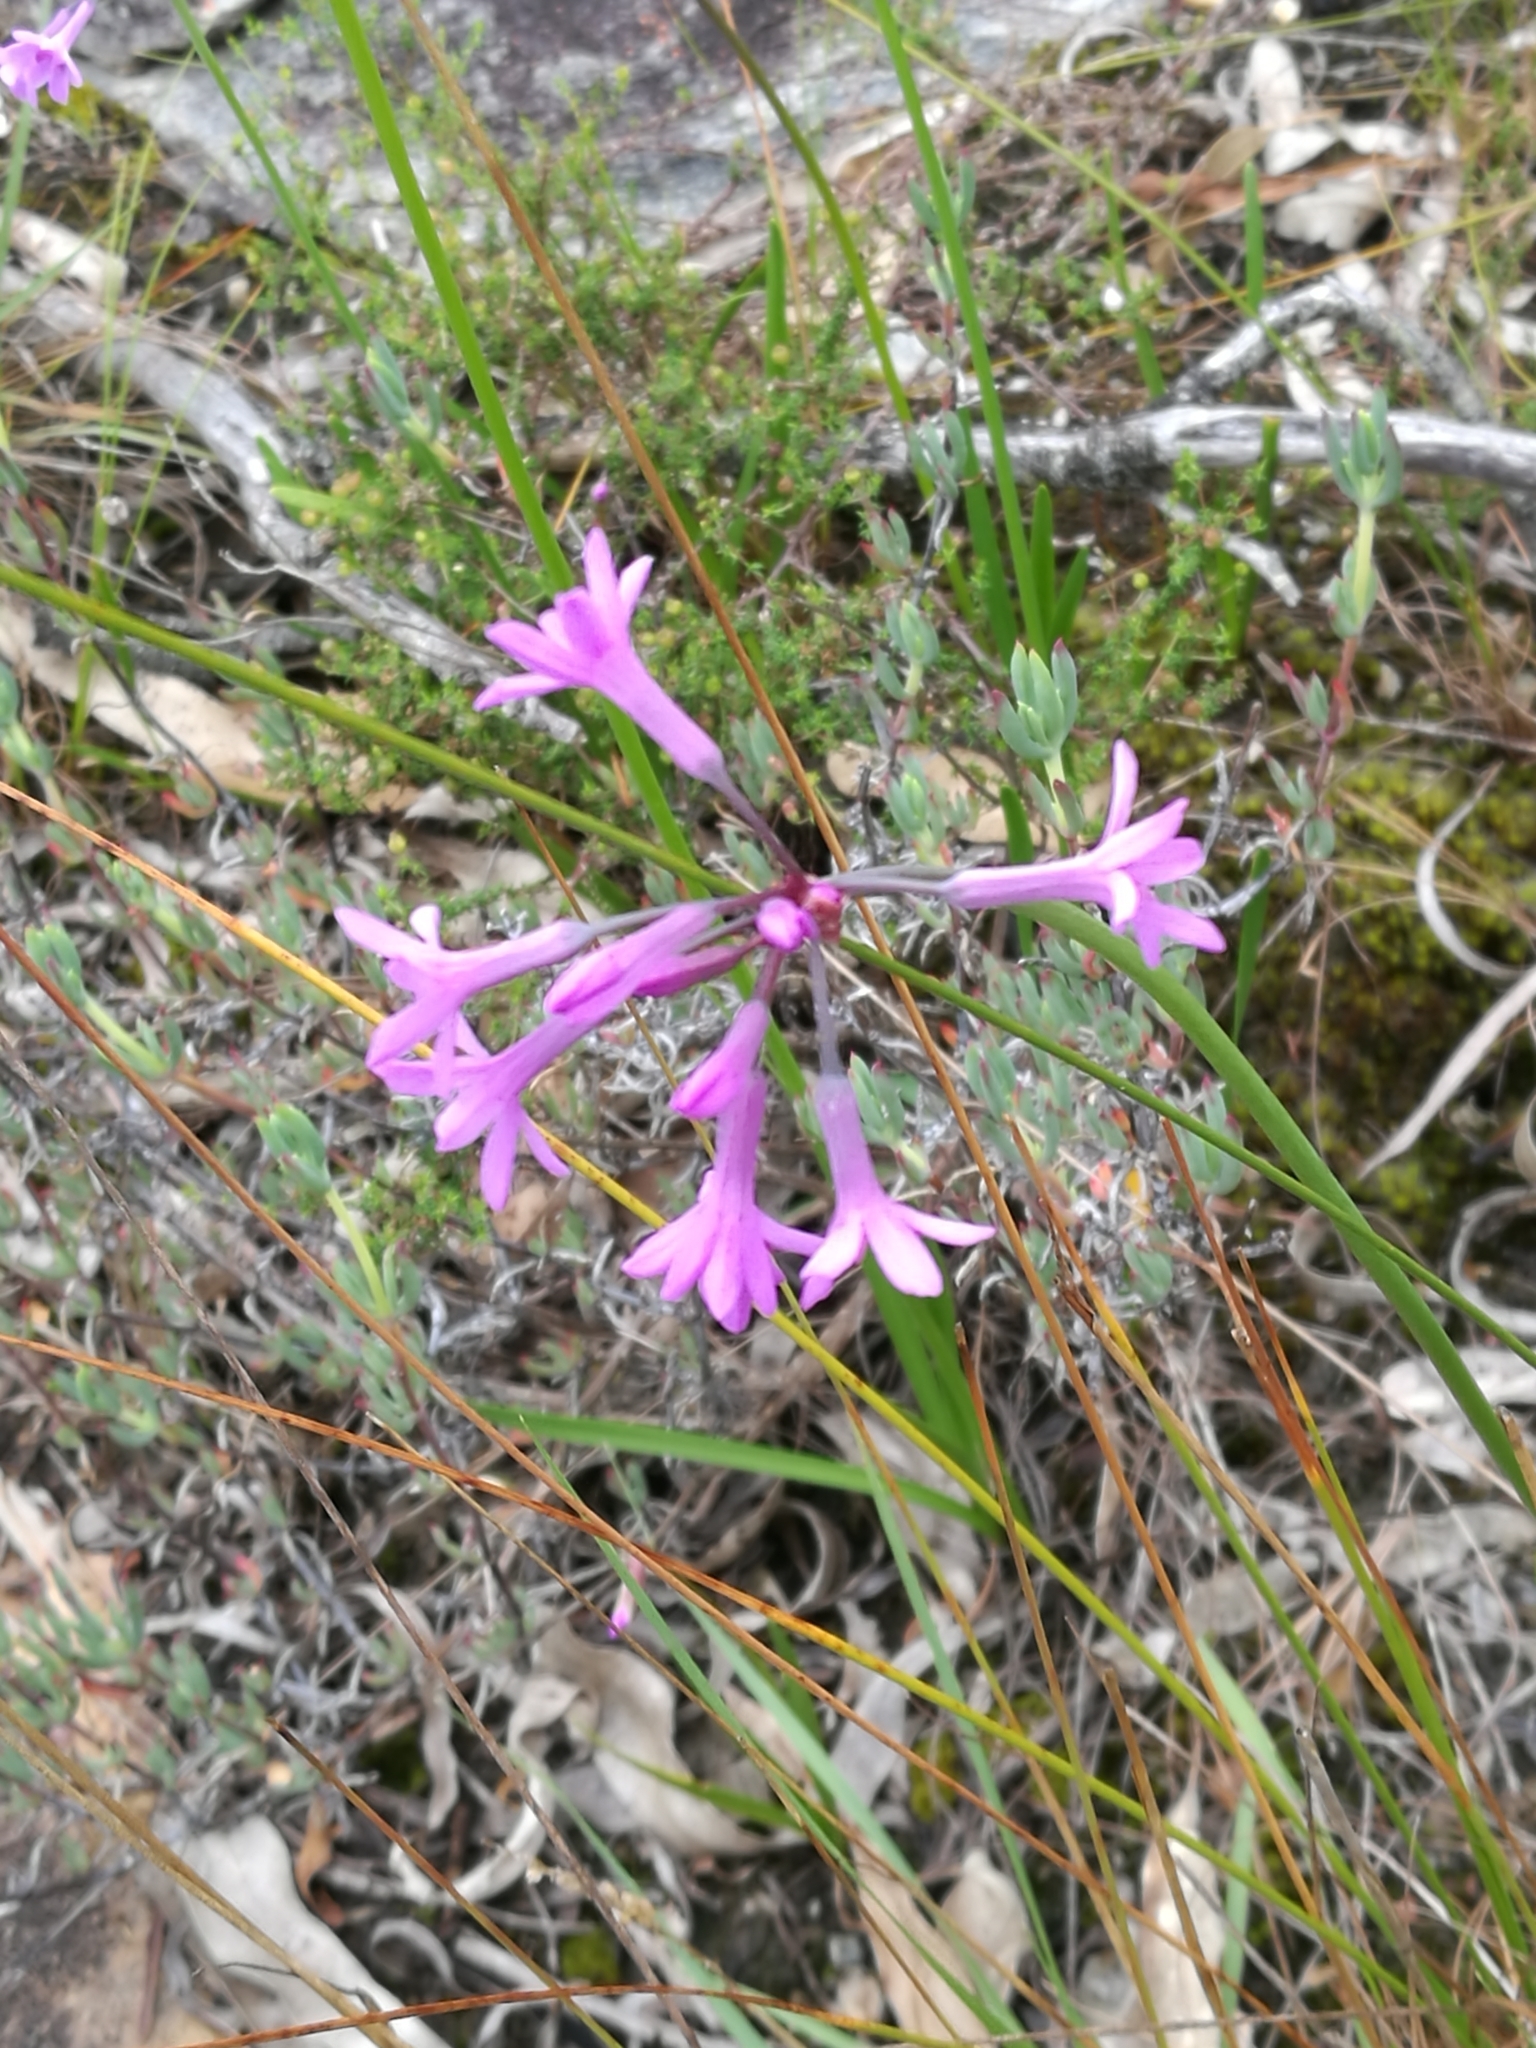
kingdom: Plantae
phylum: Tracheophyta
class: Liliopsida
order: Asparagales
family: Amaryllidaceae
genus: Tulbaghia
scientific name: Tulbaghia violacea
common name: Society garlic
